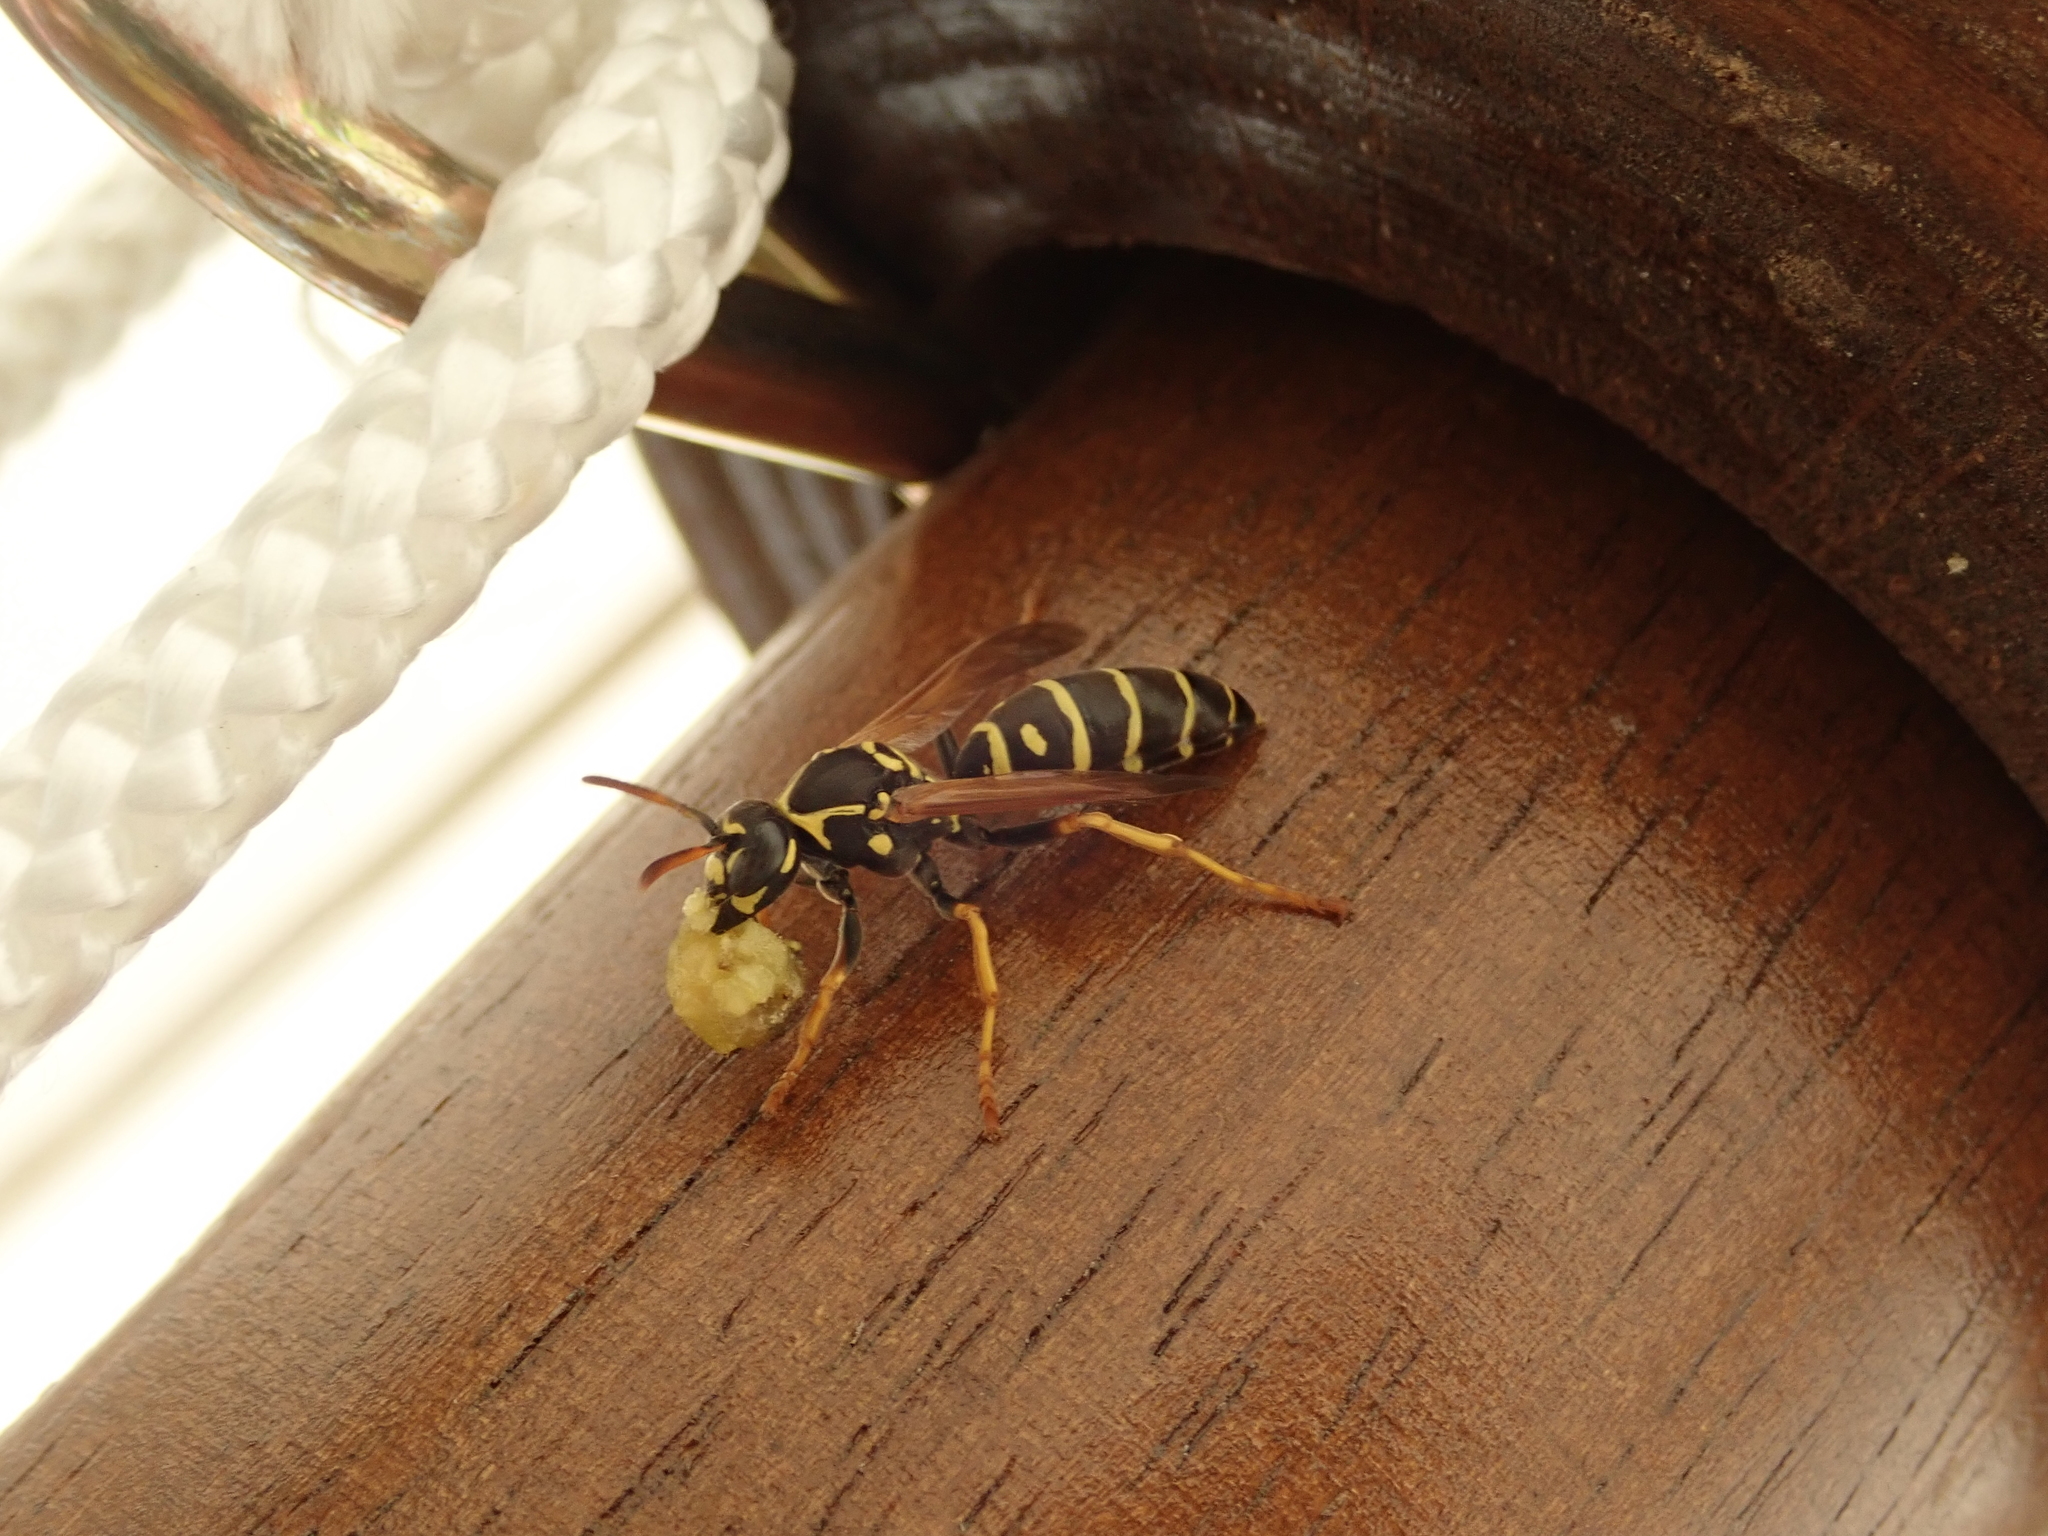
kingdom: Animalia
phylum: Arthropoda
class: Insecta
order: Hymenoptera
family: Eumenidae
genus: Polistes
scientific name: Polistes nimpha
